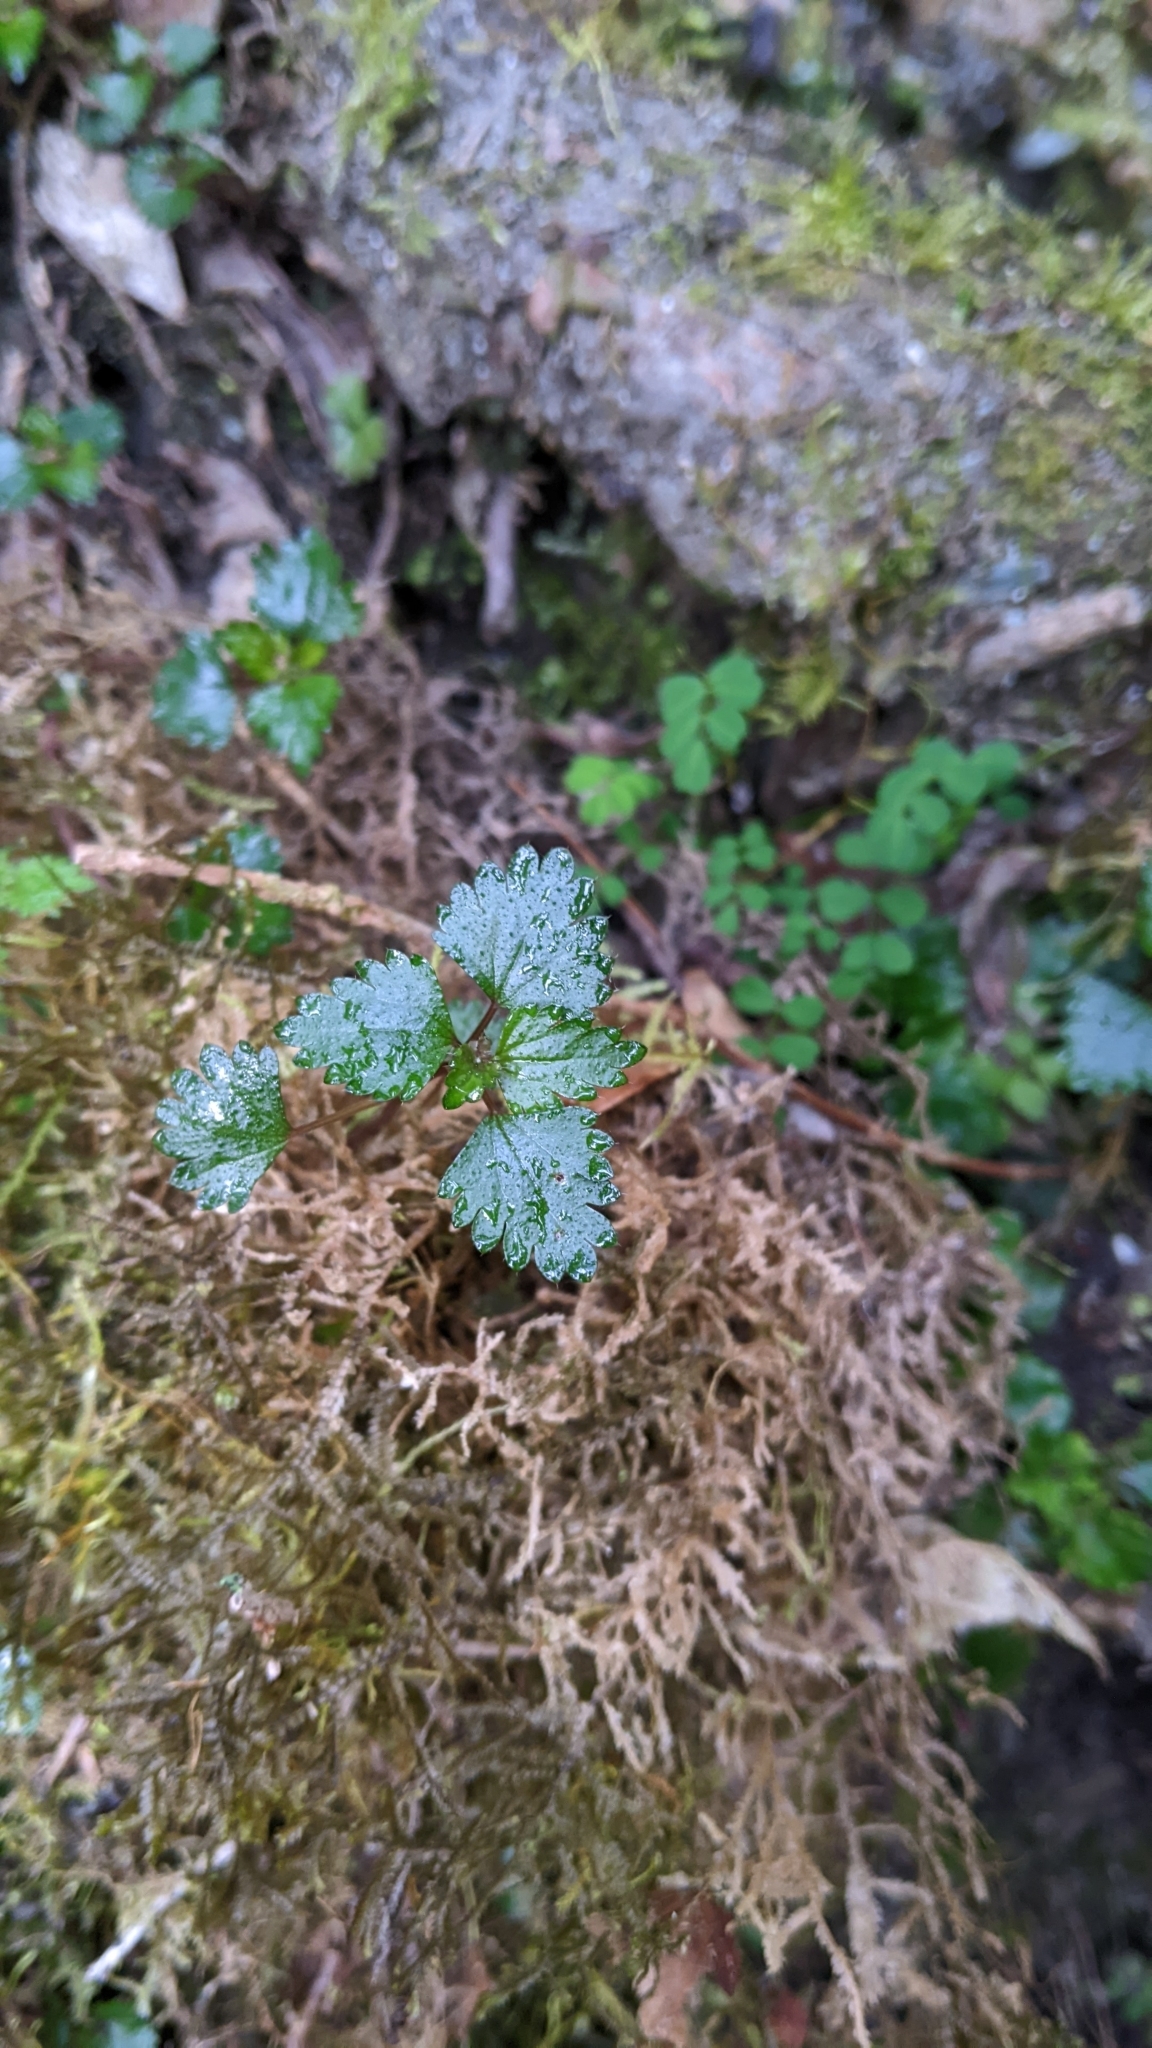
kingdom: Plantae
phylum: Tracheophyta
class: Magnoliopsida
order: Rosales
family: Urticaceae
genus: Nanocnide
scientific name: Nanocnide japonica
